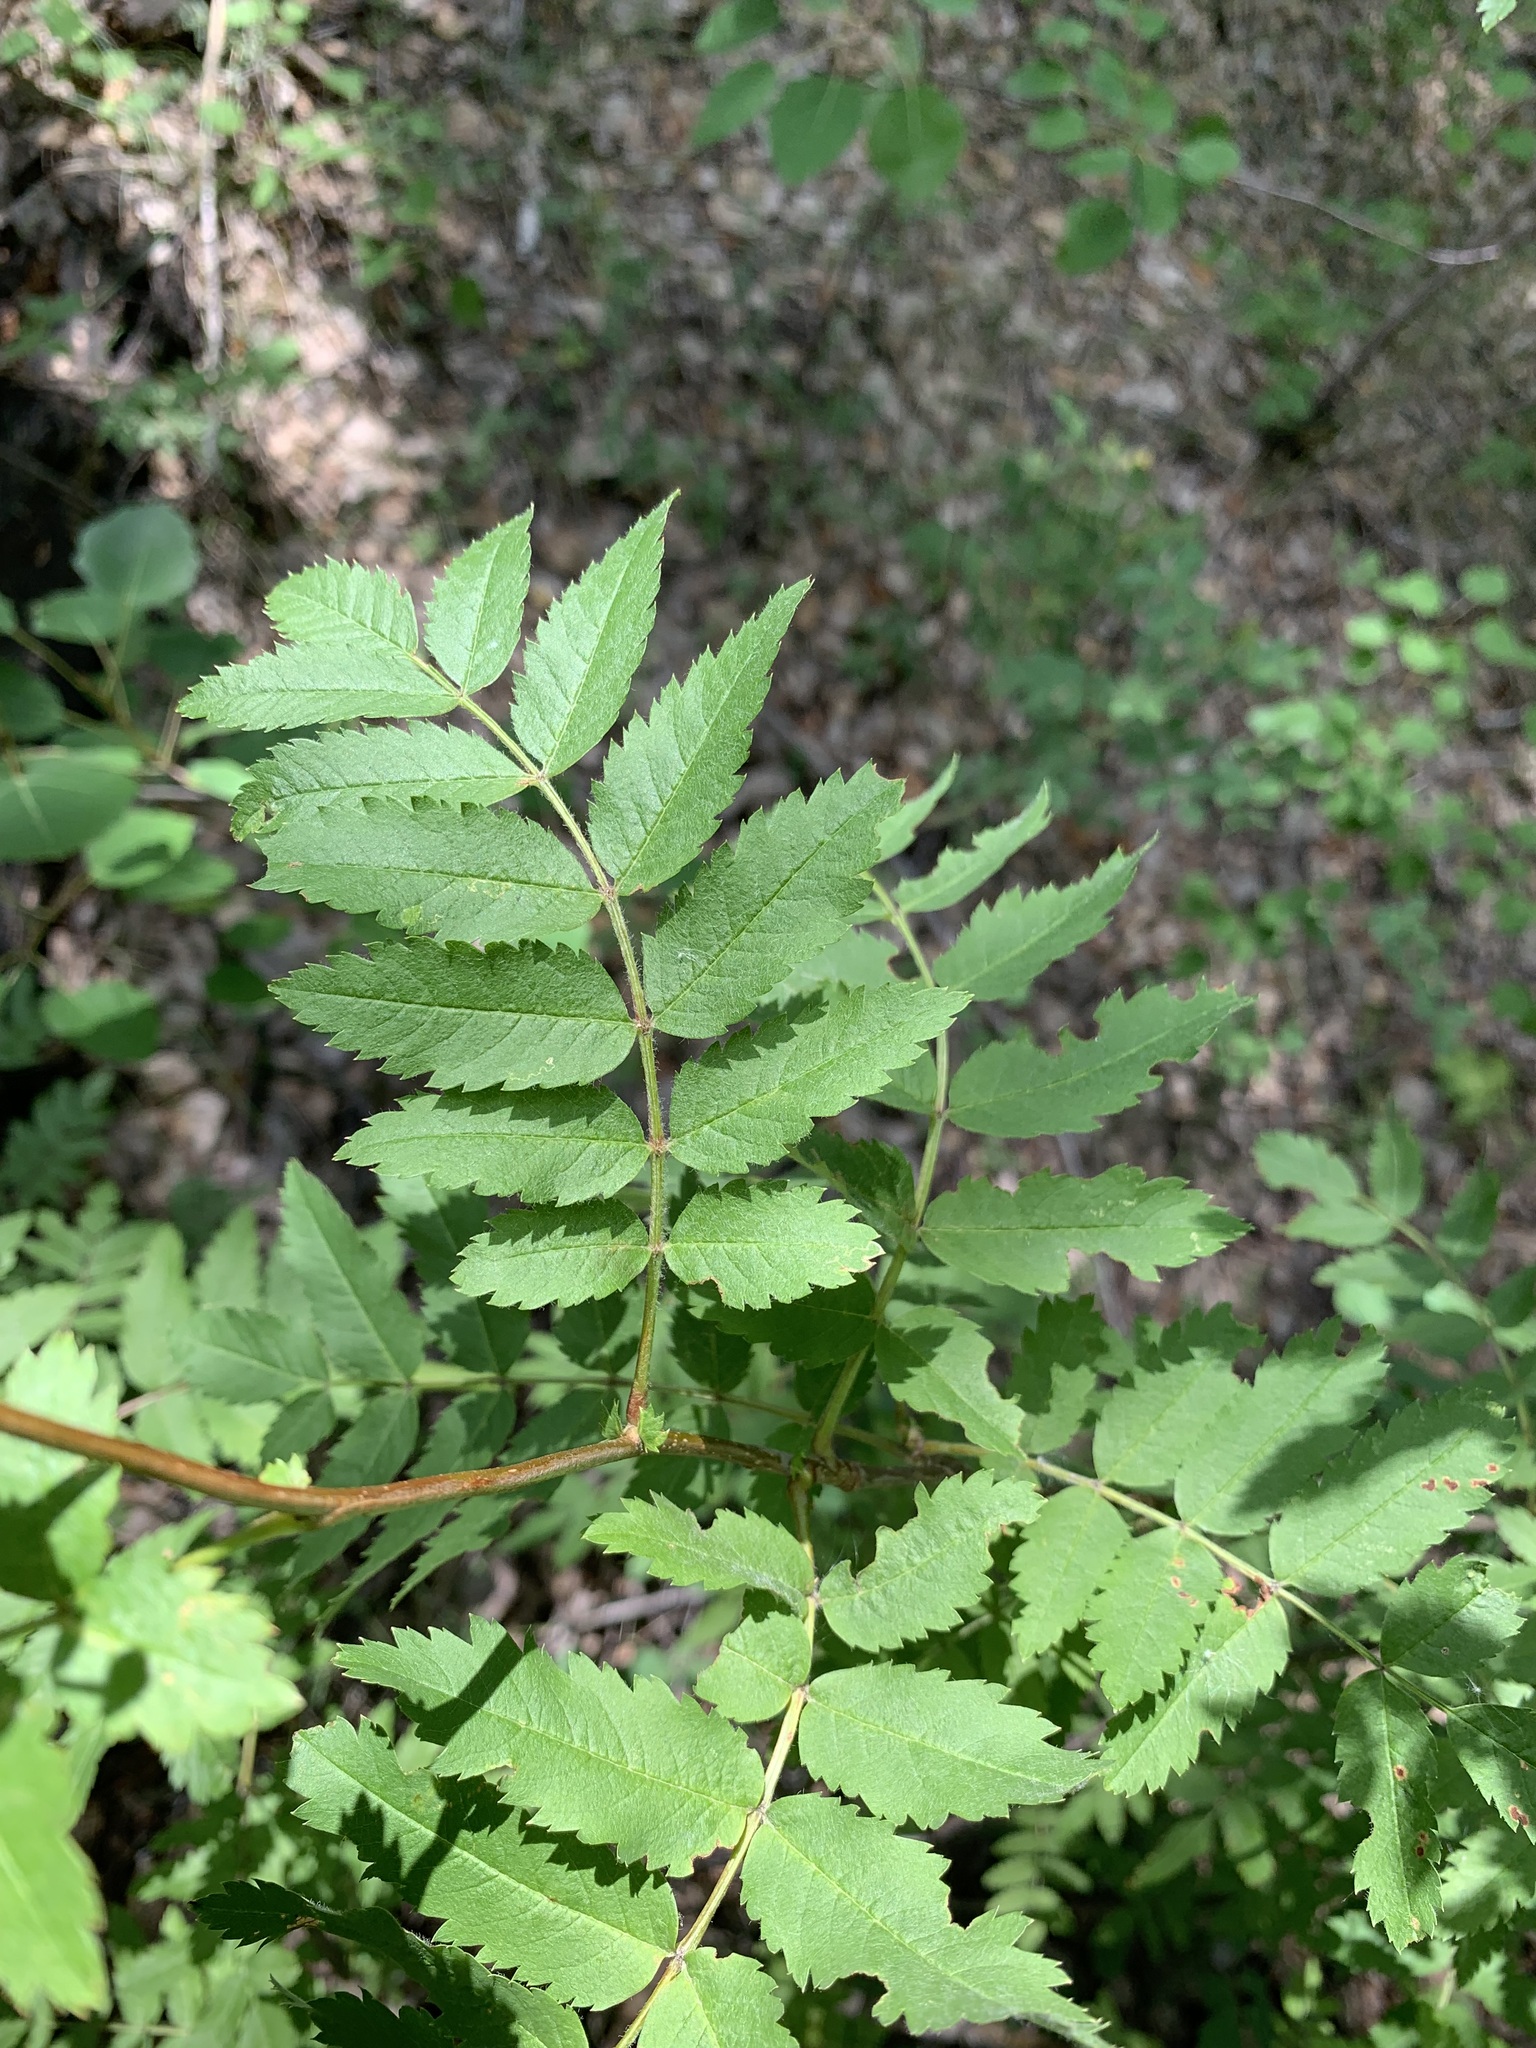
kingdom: Plantae
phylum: Tracheophyta
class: Magnoliopsida
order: Rosales
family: Rosaceae
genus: Sorbus
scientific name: Sorbus aucuparia
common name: Rowan
